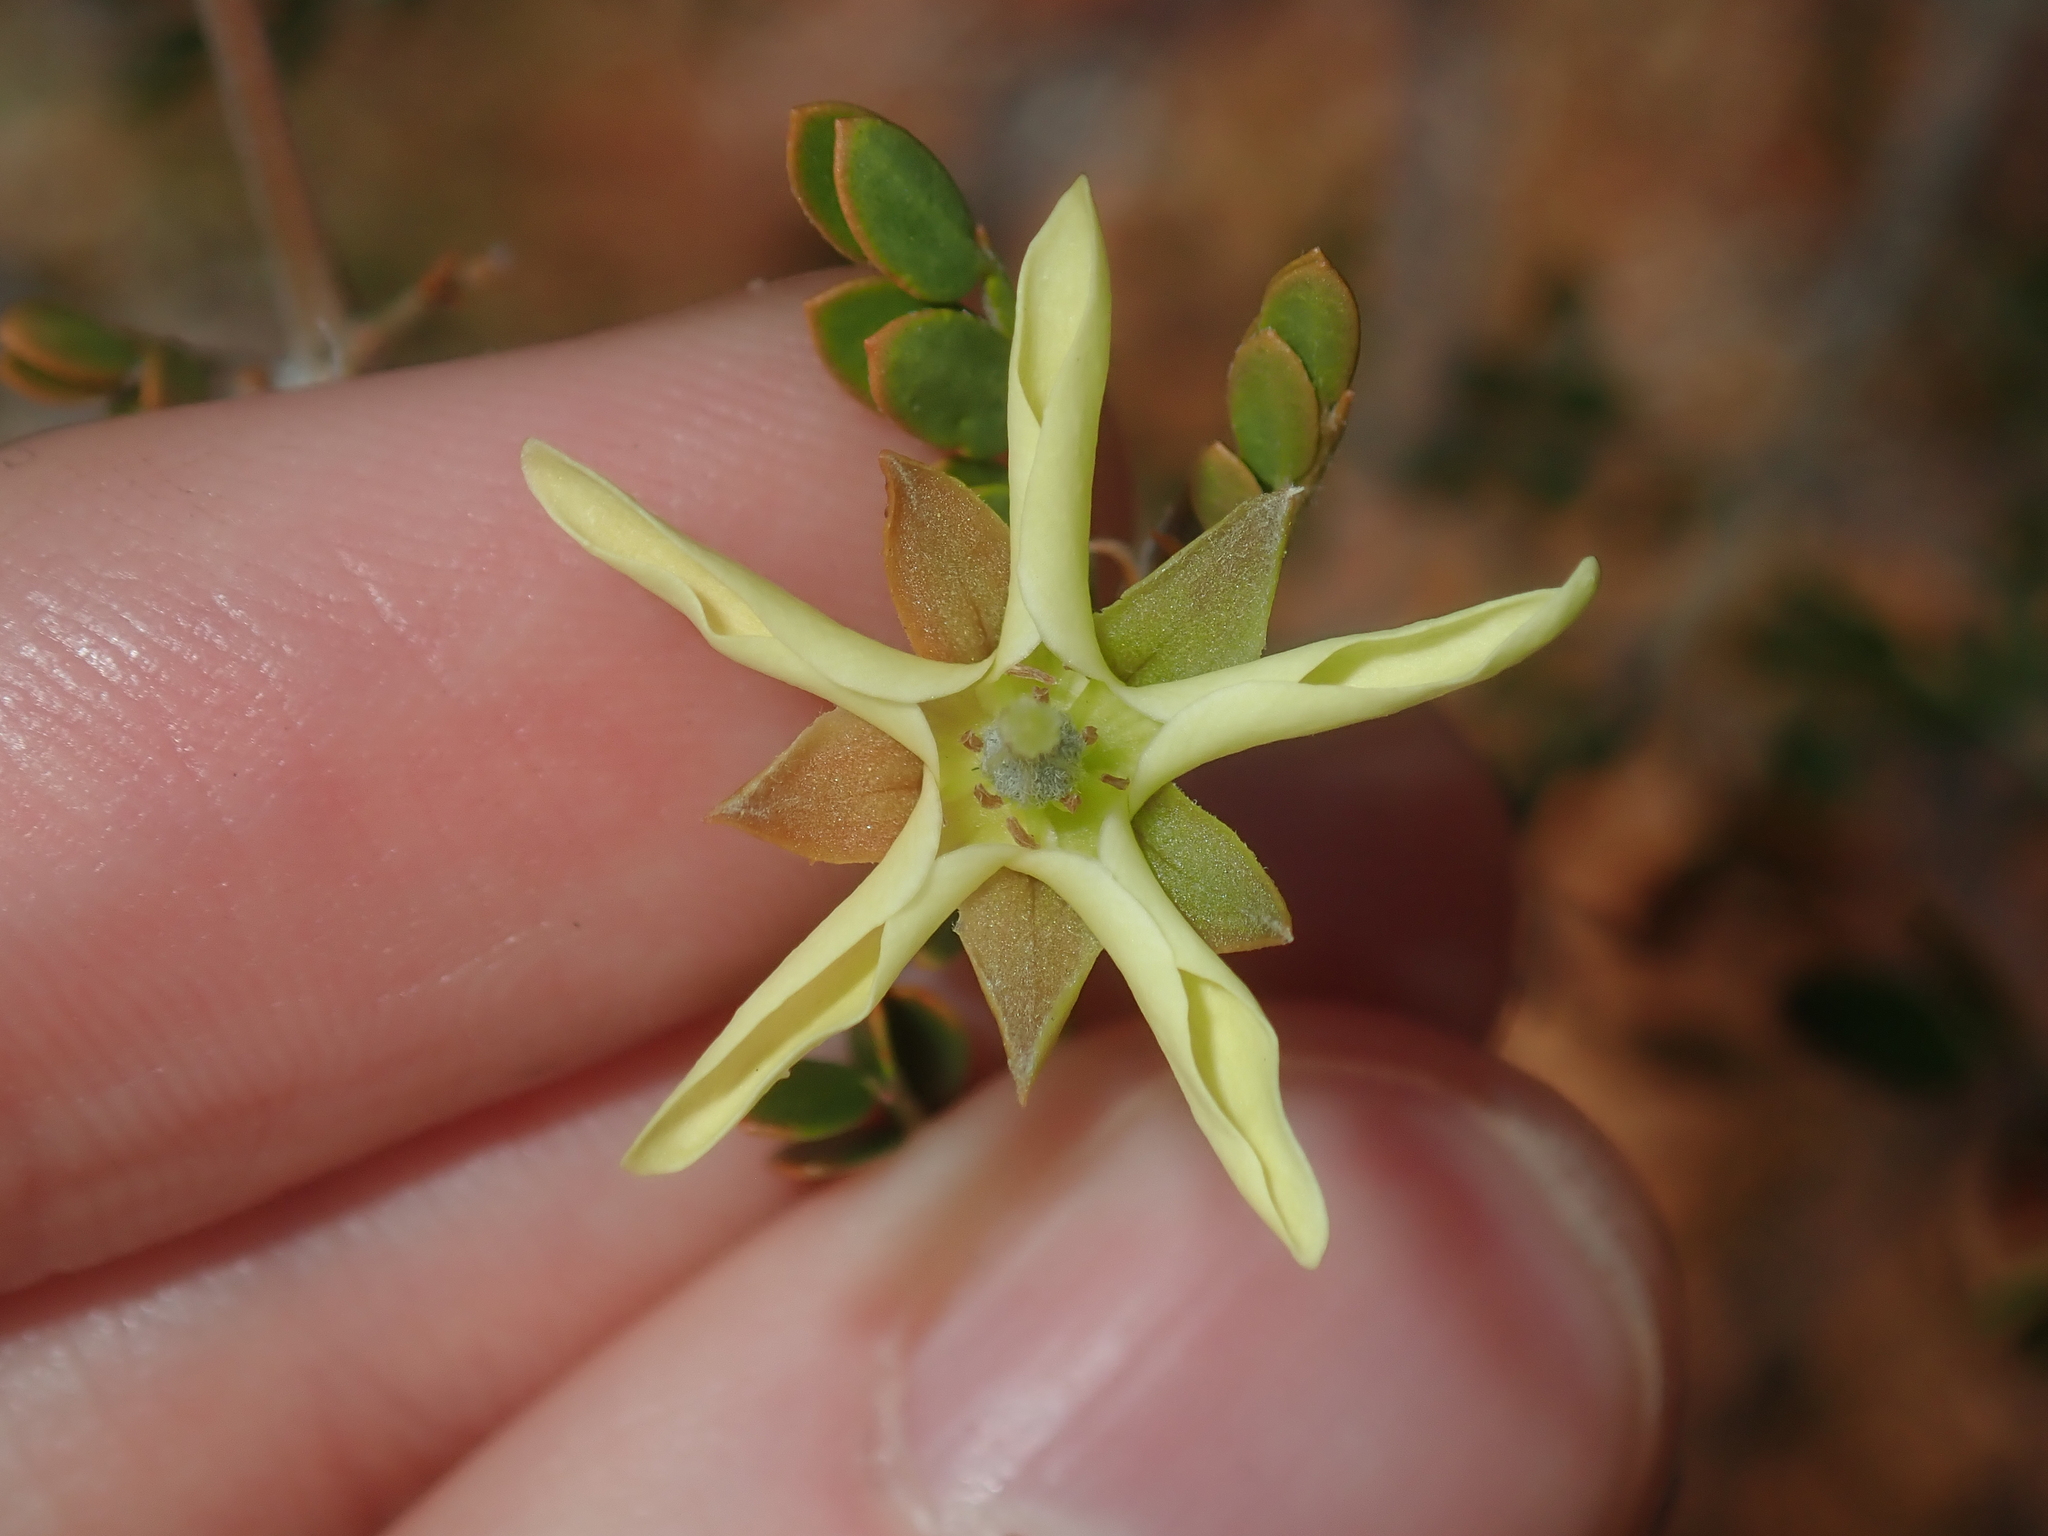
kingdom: Plantae
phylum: Tracheophyta
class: Magnoliopsida
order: Zygophyllales
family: Zygophyllaceae
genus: Tribulus
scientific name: Tribulus suberosus
